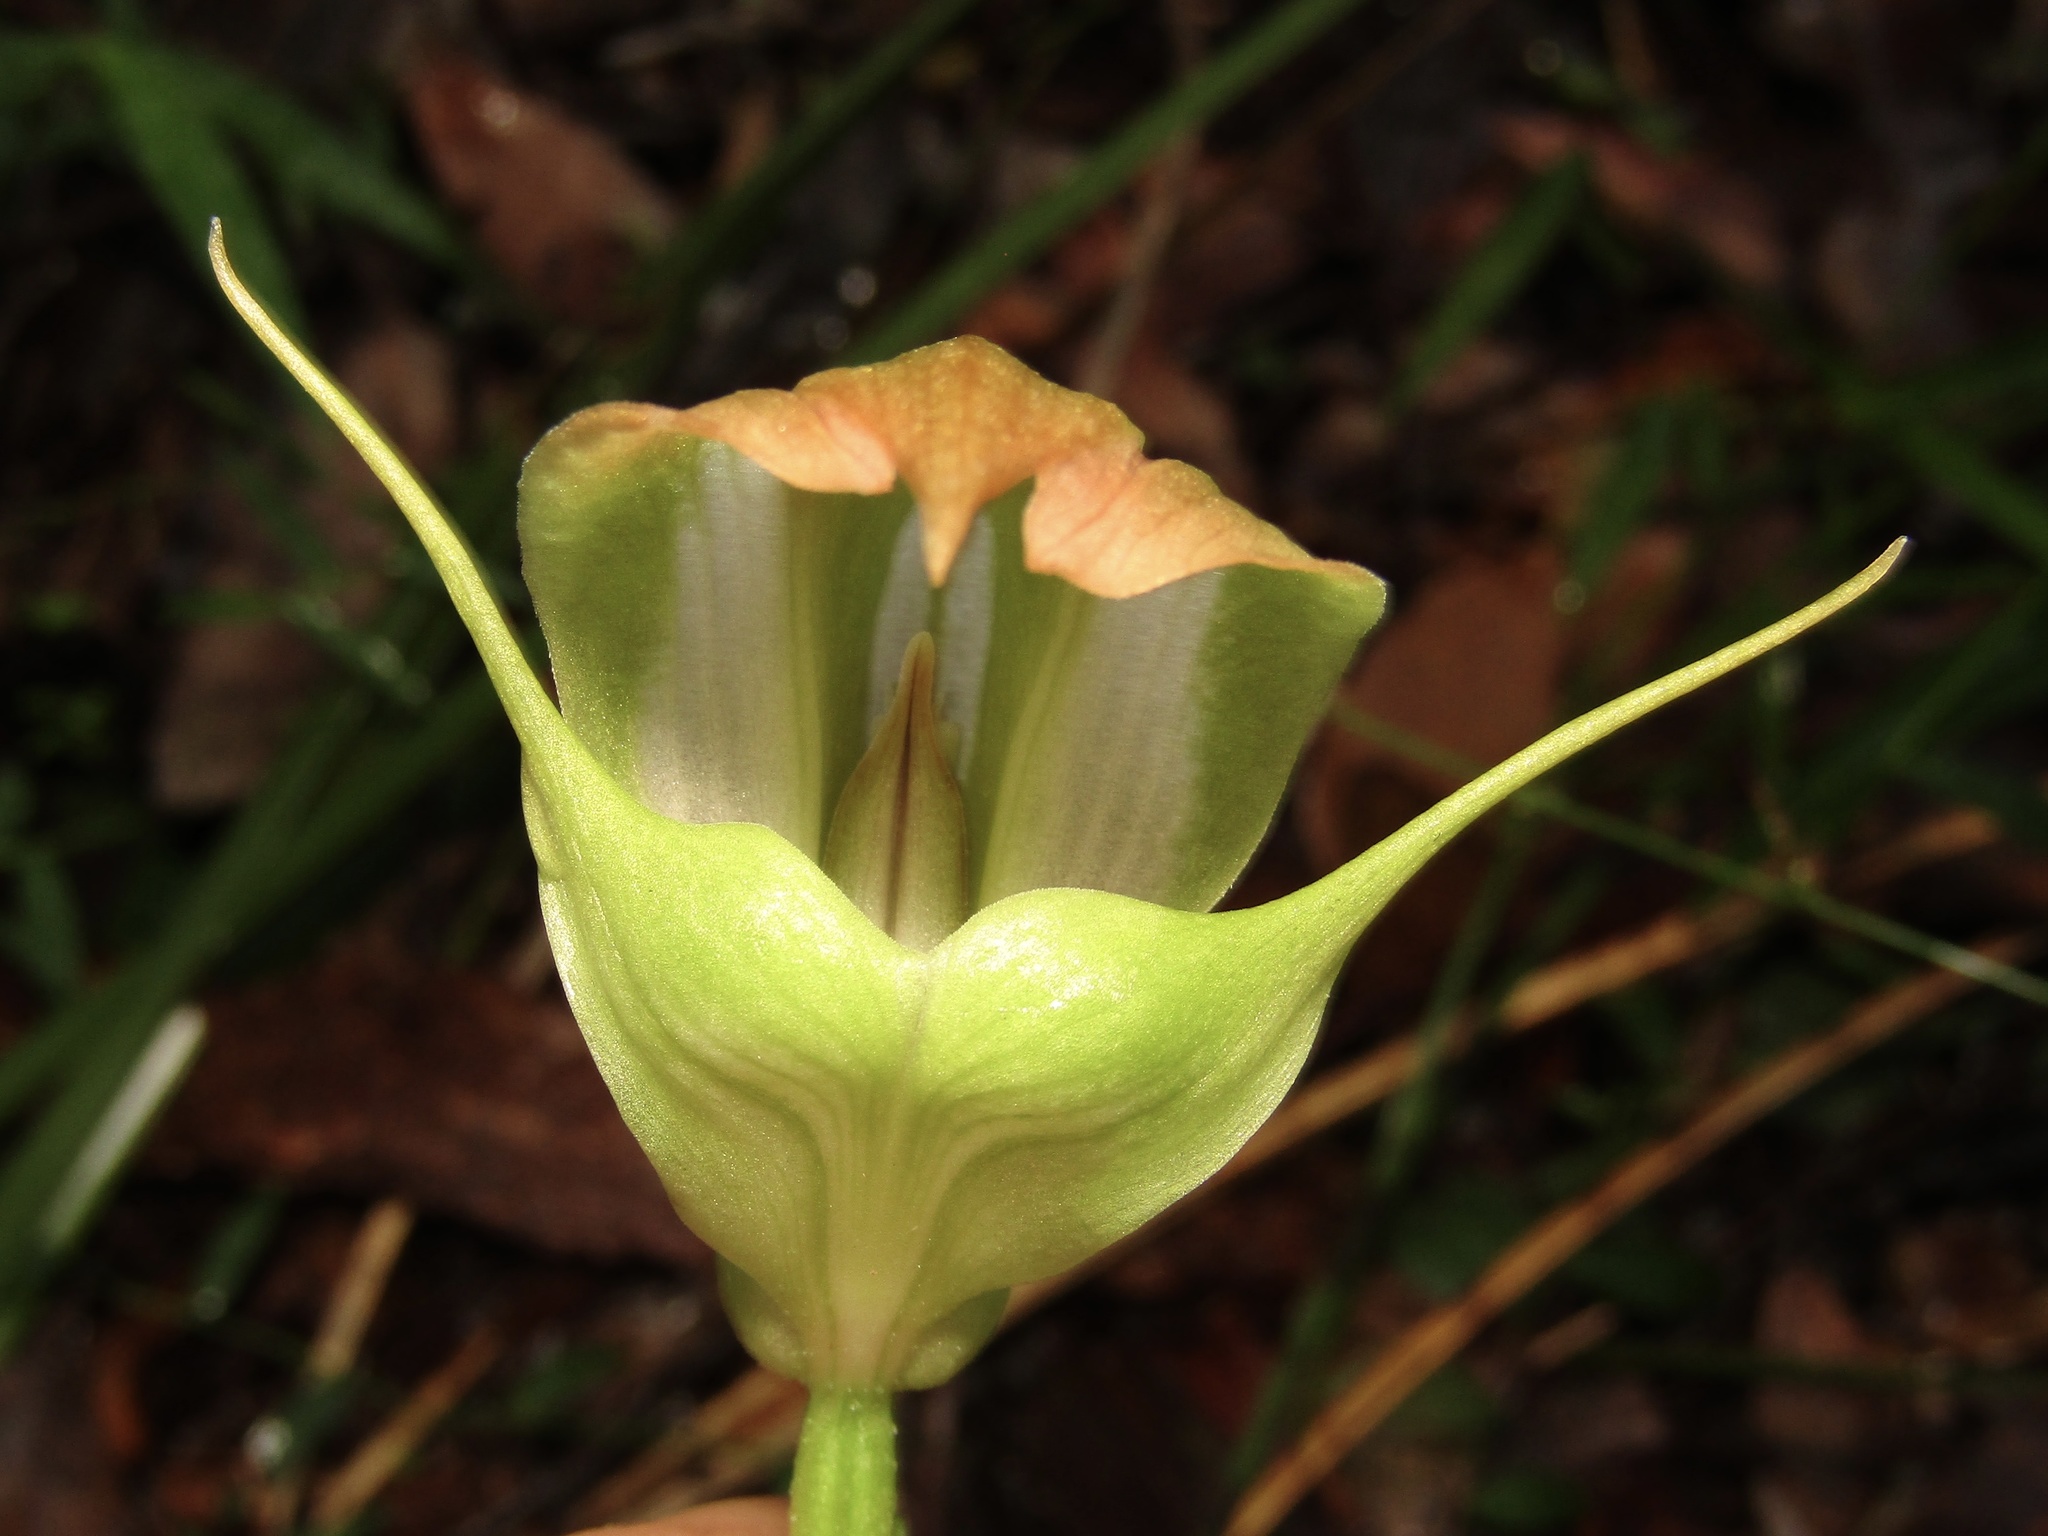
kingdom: Plantae
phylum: Tracheophyta
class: Liliopsida
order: Asparagales
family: Orchidaceae
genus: Pterostylis
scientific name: Pterostylis baptistii
